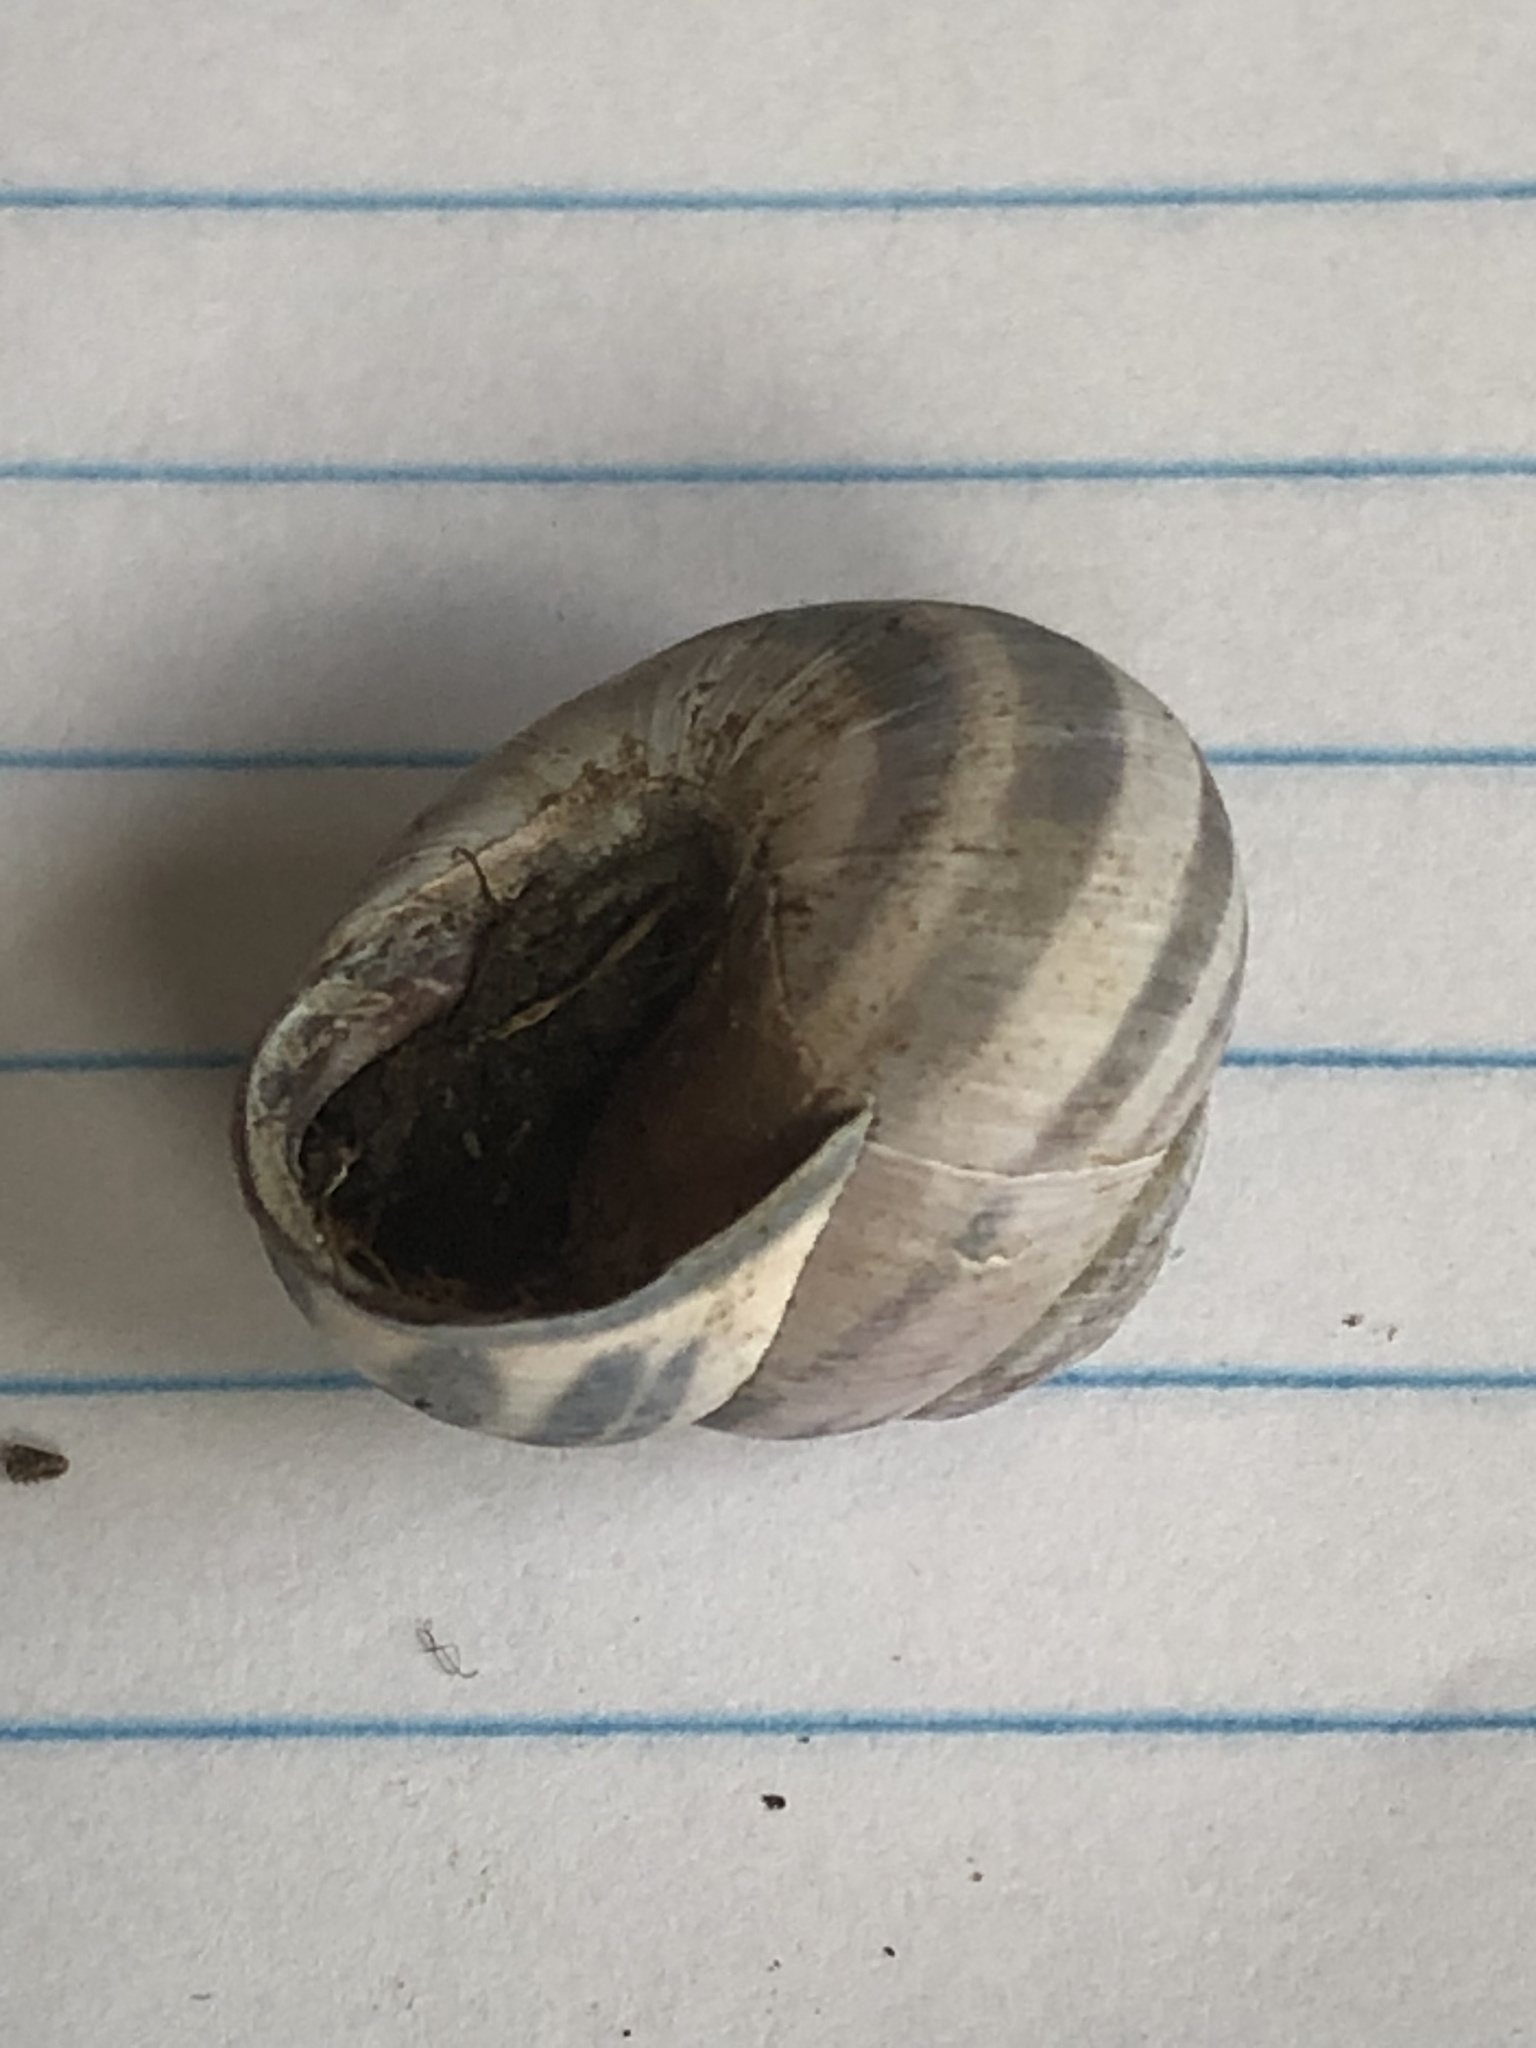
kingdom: Animalia
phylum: Mollusca
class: Gastropoda
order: Stylommatophora
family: Helicidae
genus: Cepaea
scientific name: Cepaea nemoralis
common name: Grovesnail
